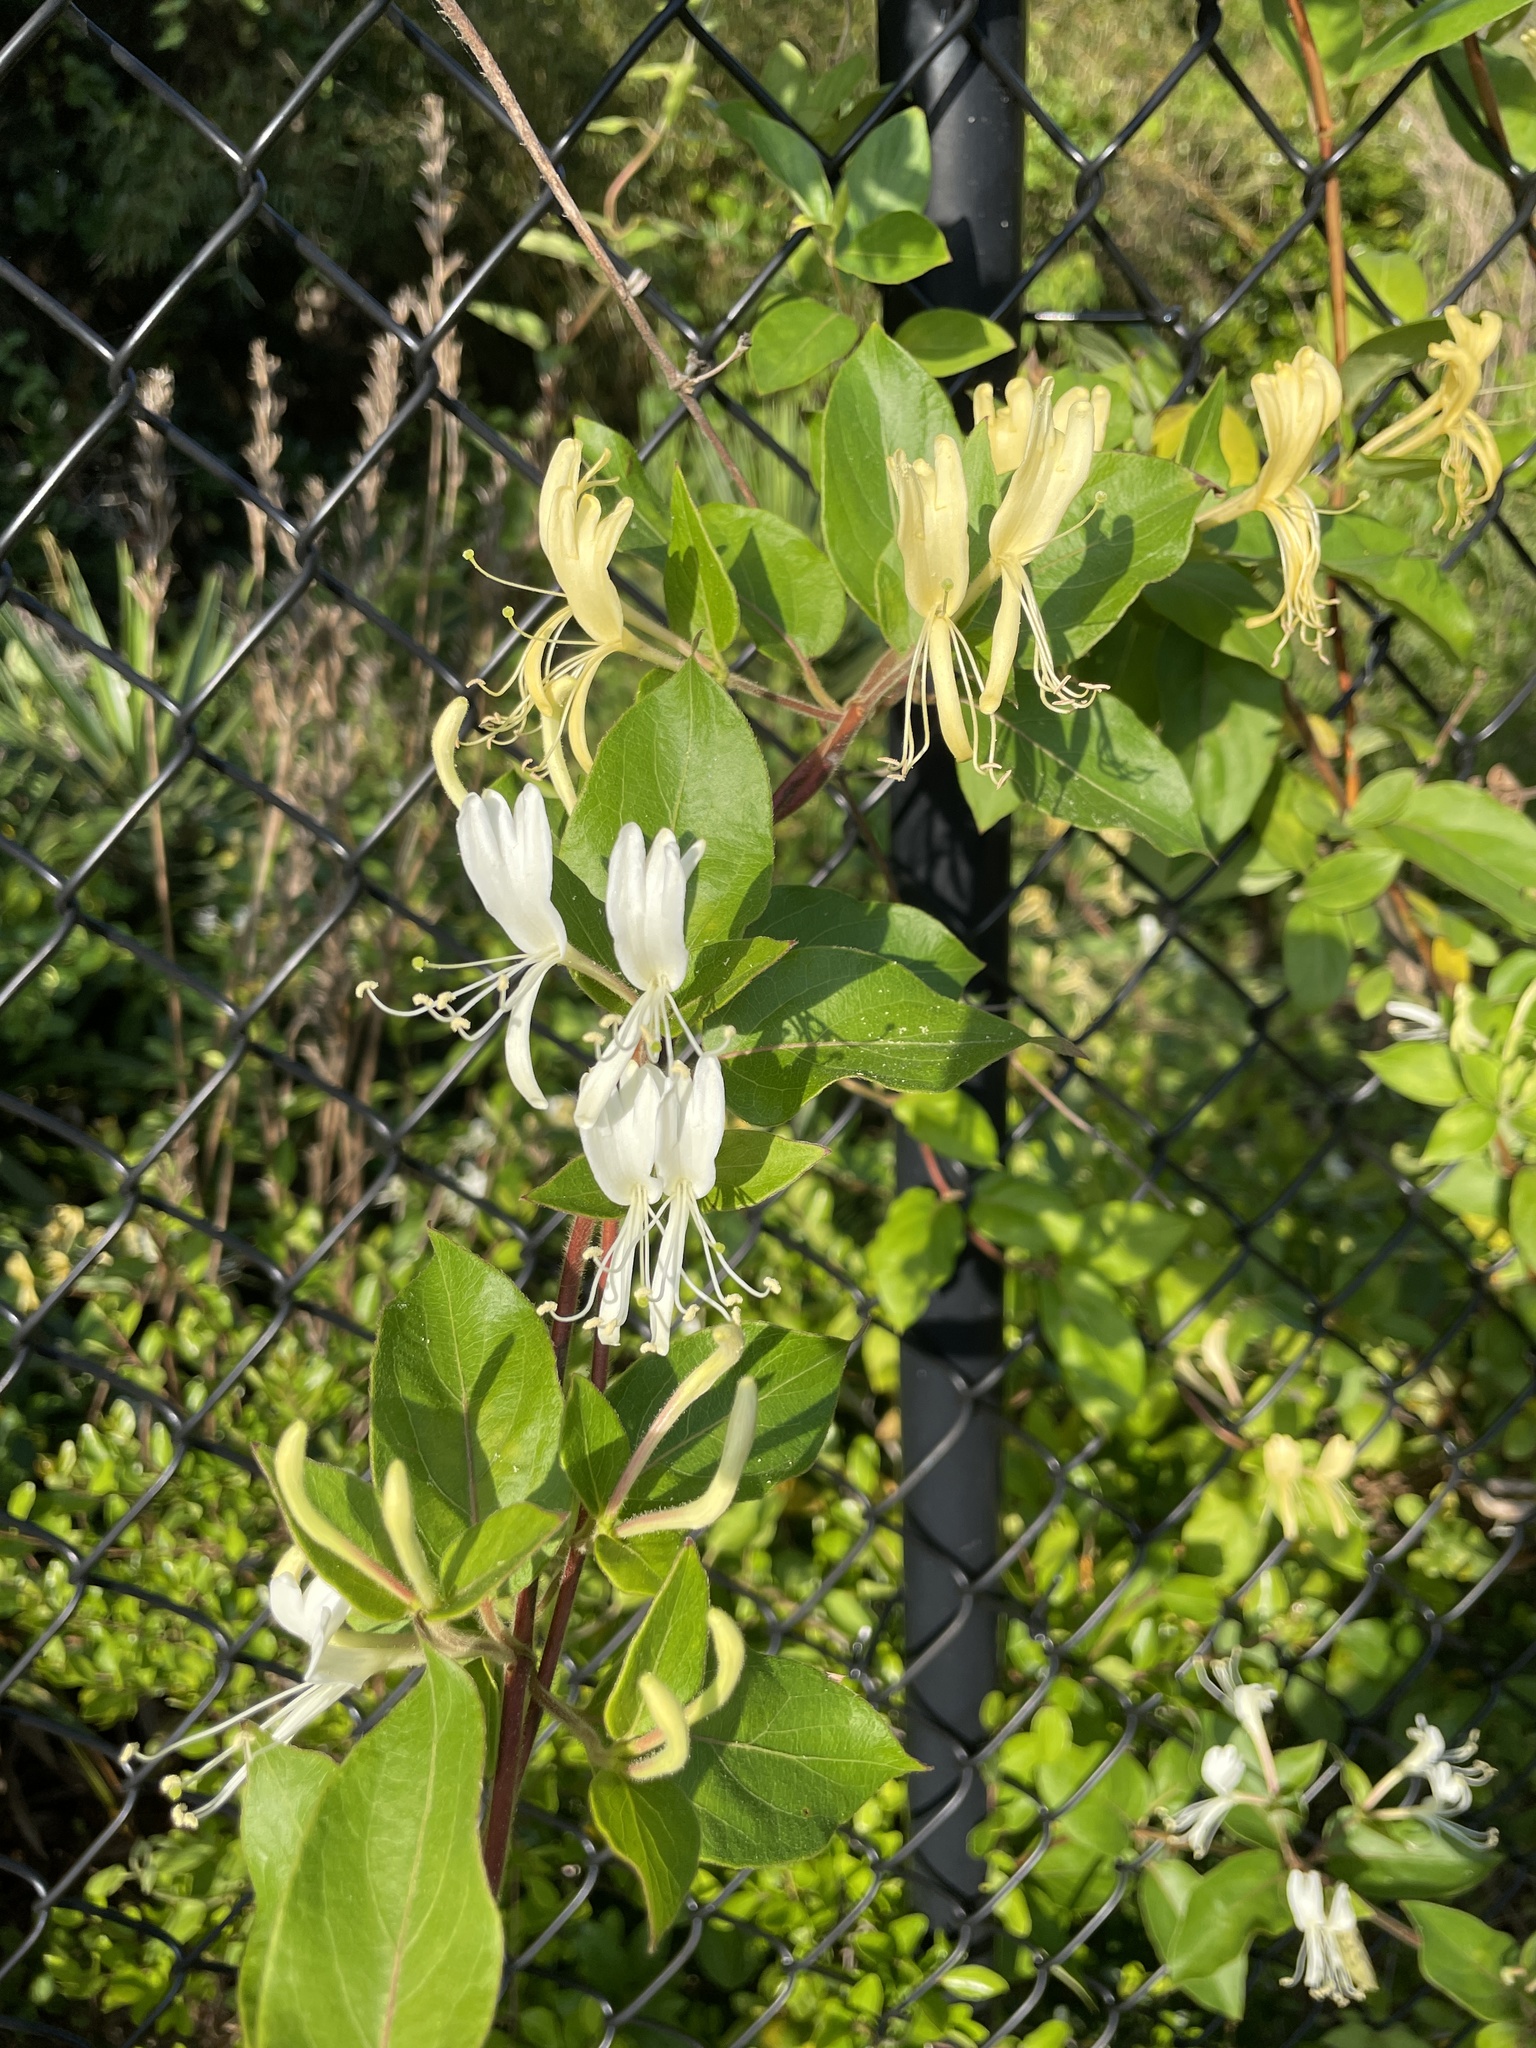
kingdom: Plantae
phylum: Tracheophyta
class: Magnoliopsida
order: Dipsacales
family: Caprifoliaceae
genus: Lonicera
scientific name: Lonicera japonica
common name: Japanese honeysuckle
